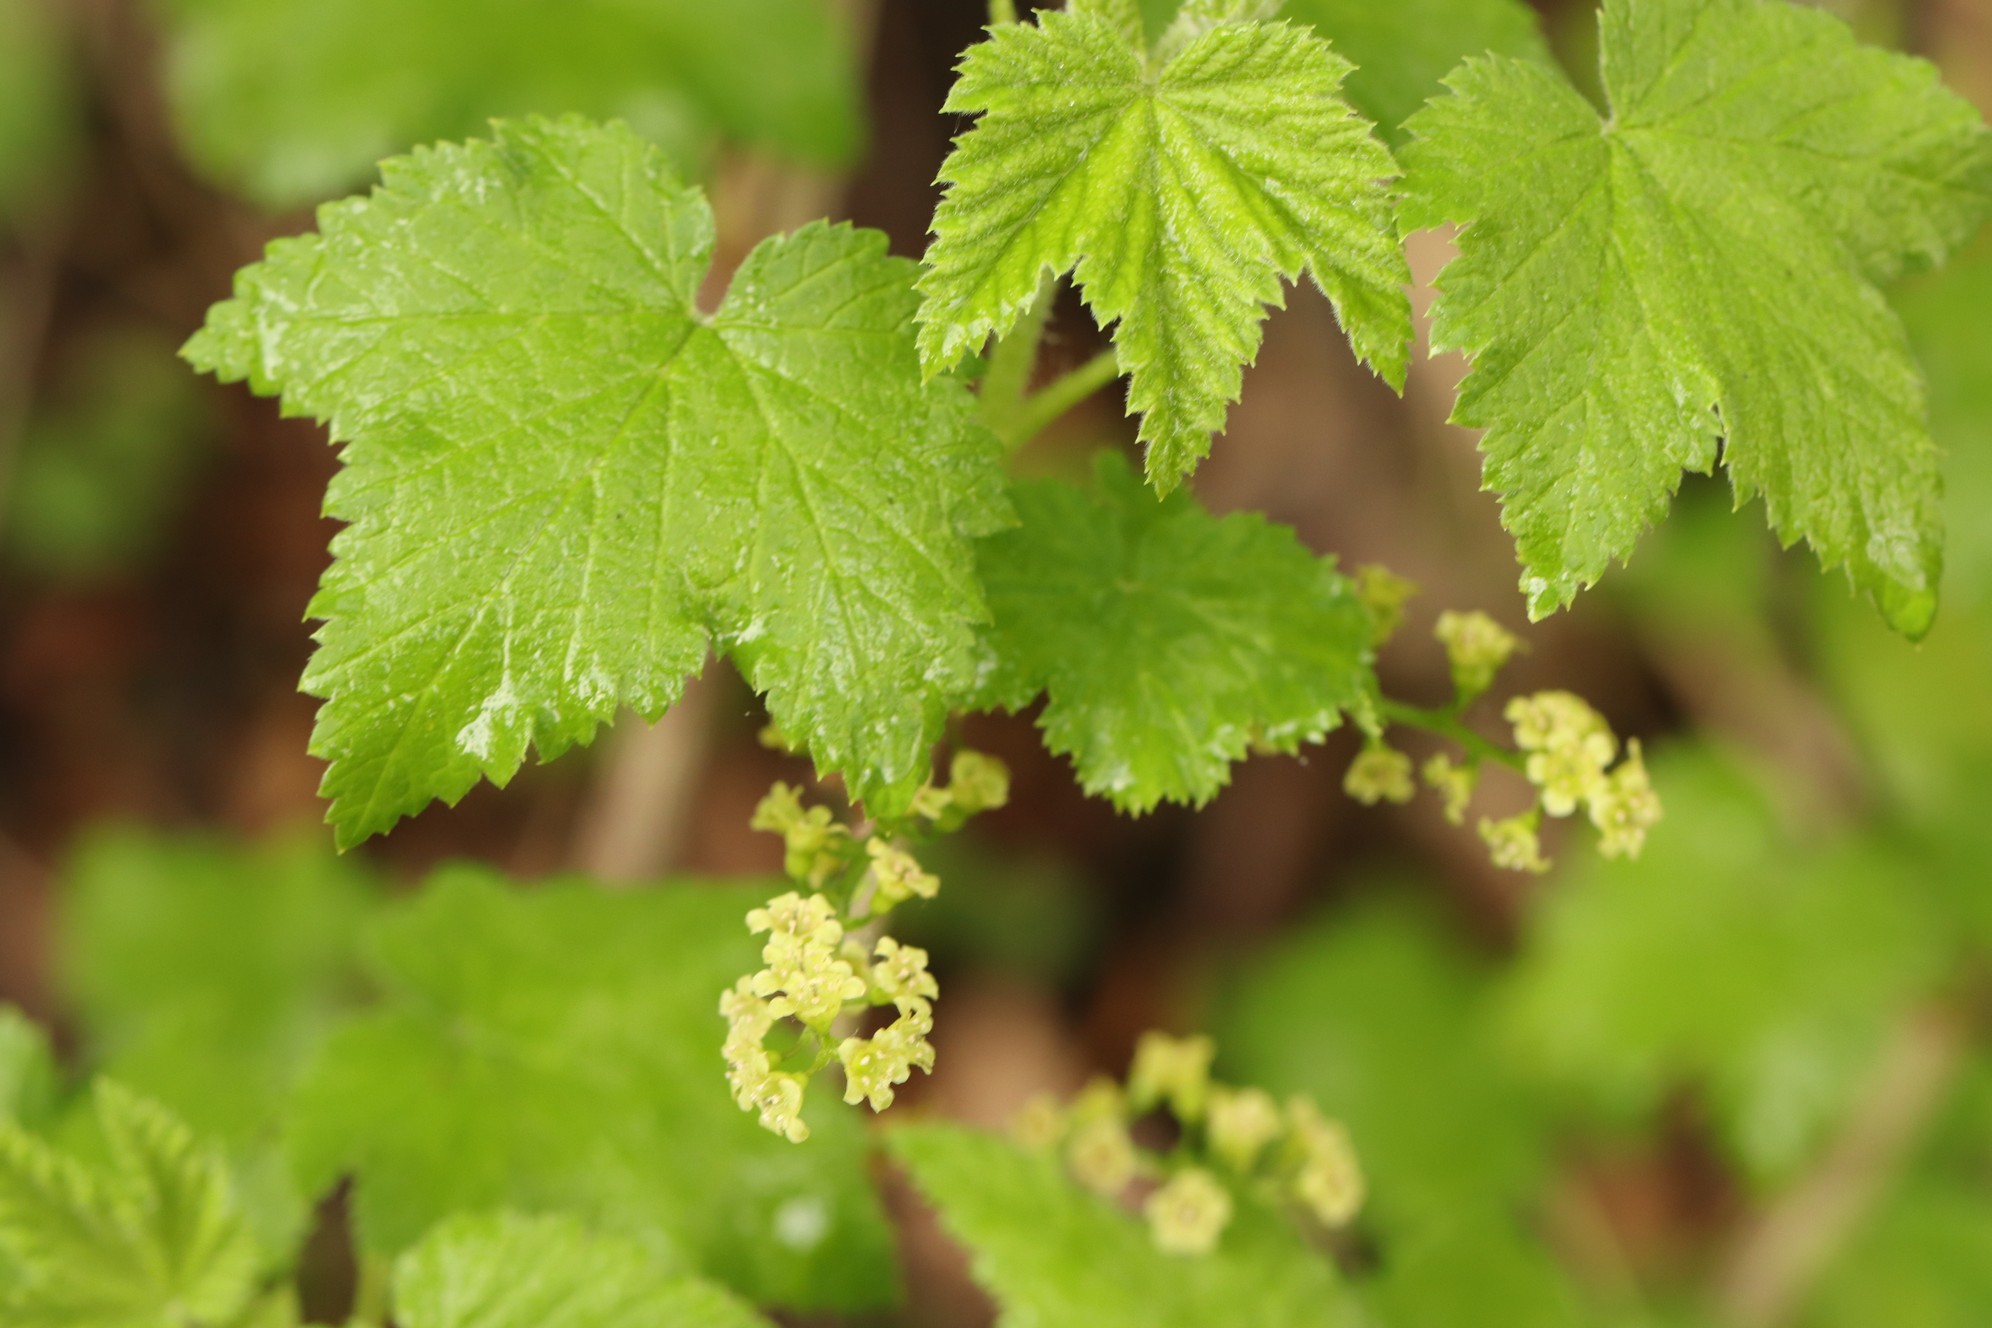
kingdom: Plantae
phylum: Tracheophyta
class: Magnoliopsida
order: Saxifragales
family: Grossulariaceae
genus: Ribes
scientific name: Ribes spicatum
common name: Downy currant
